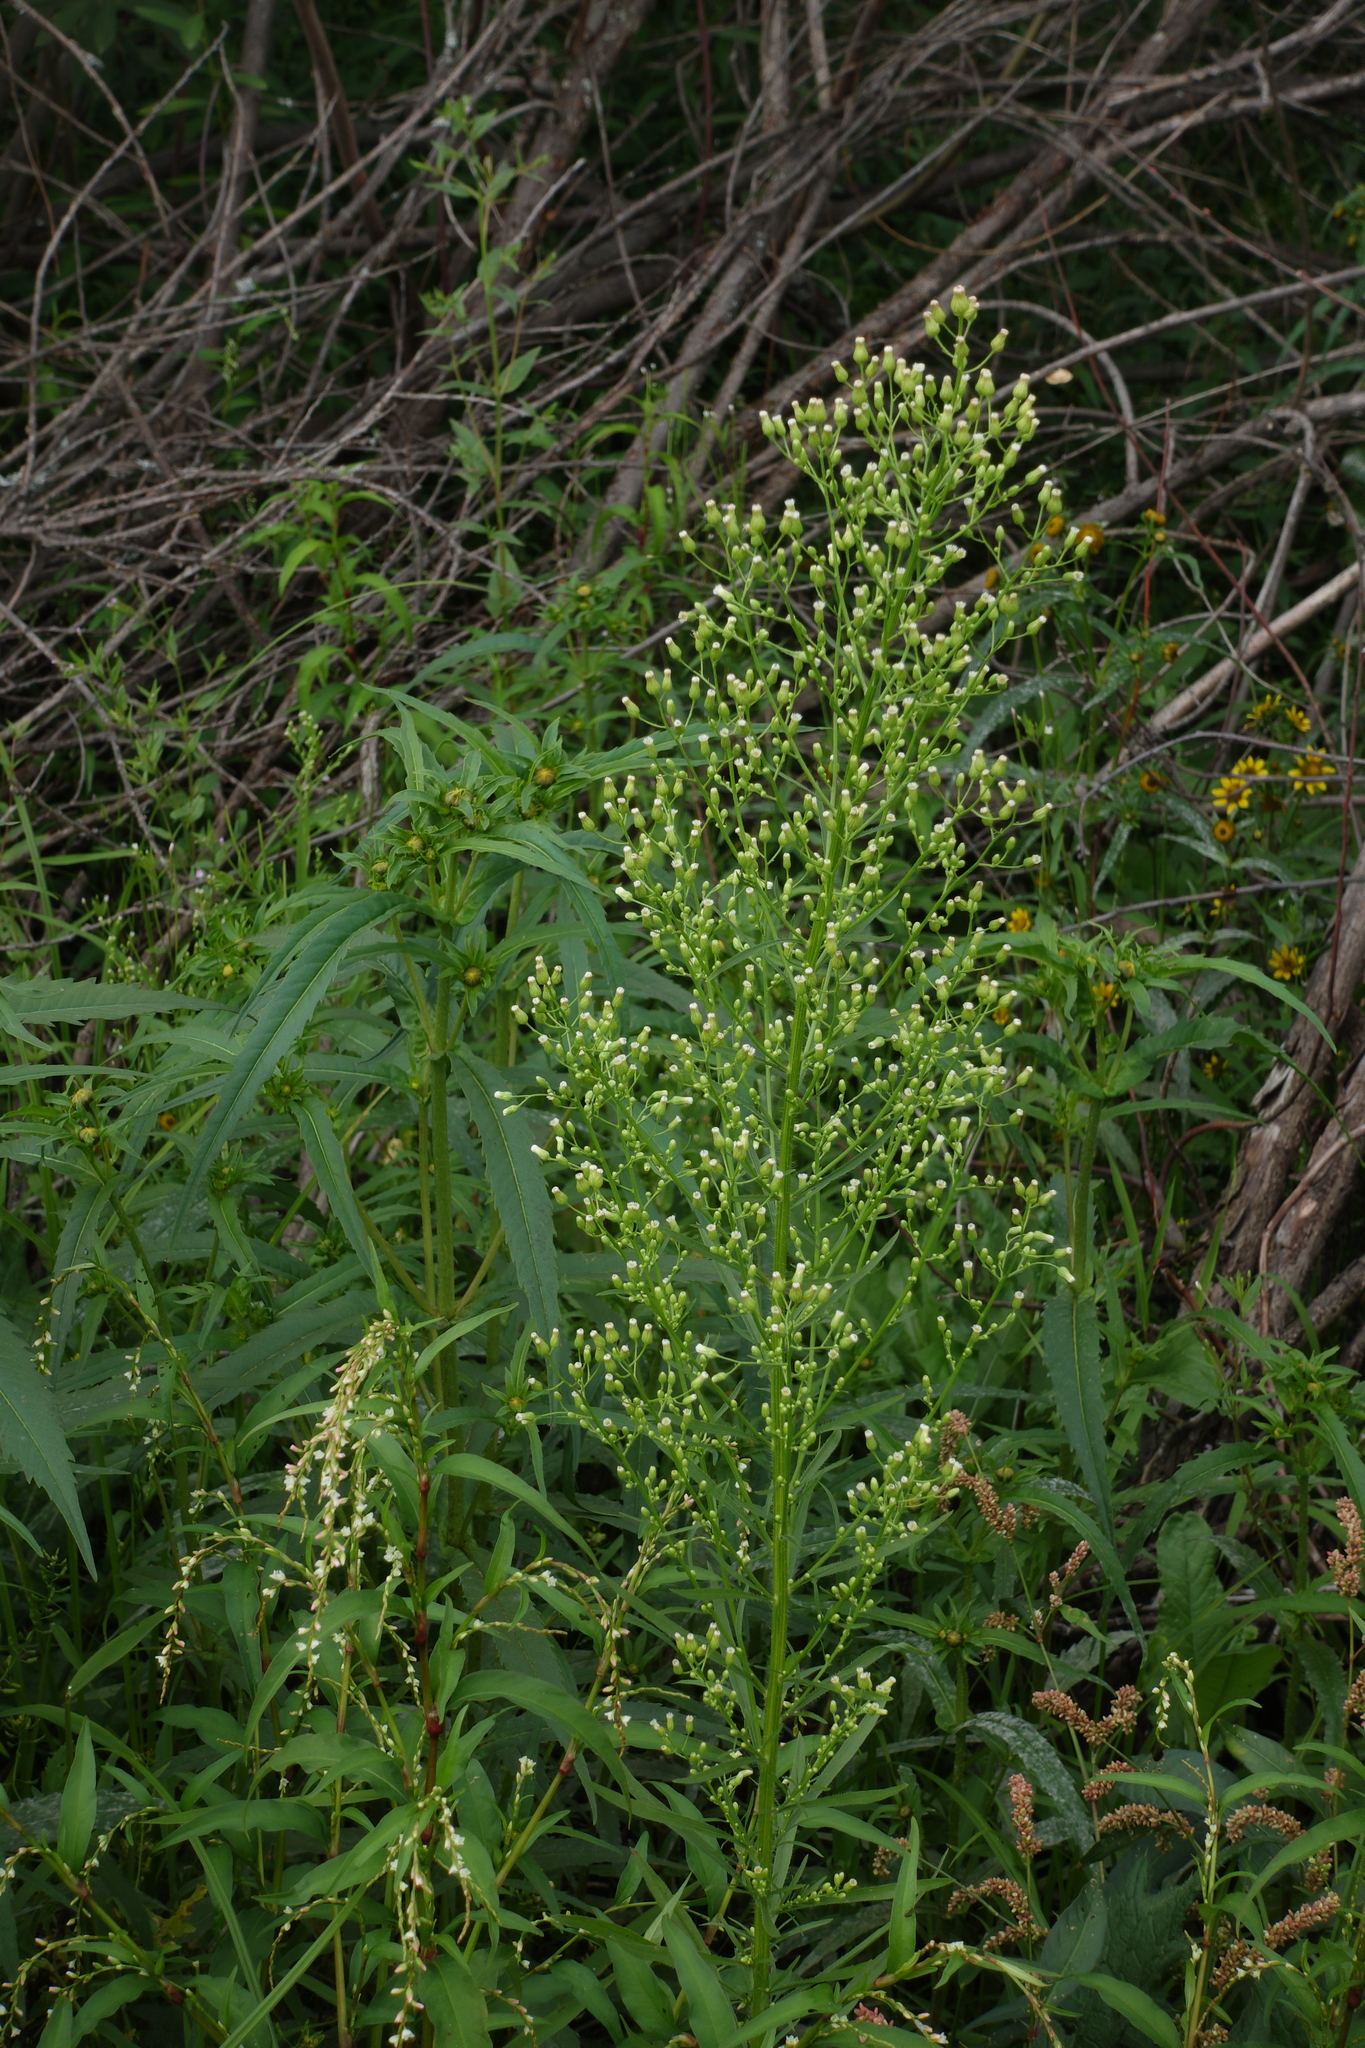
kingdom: Plantae
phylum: Tracheophyta
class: Magnoliopsida
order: Asterales
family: Asteraceae
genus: Erigeron
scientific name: Erigeron canadensis
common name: Canadian fleabane
